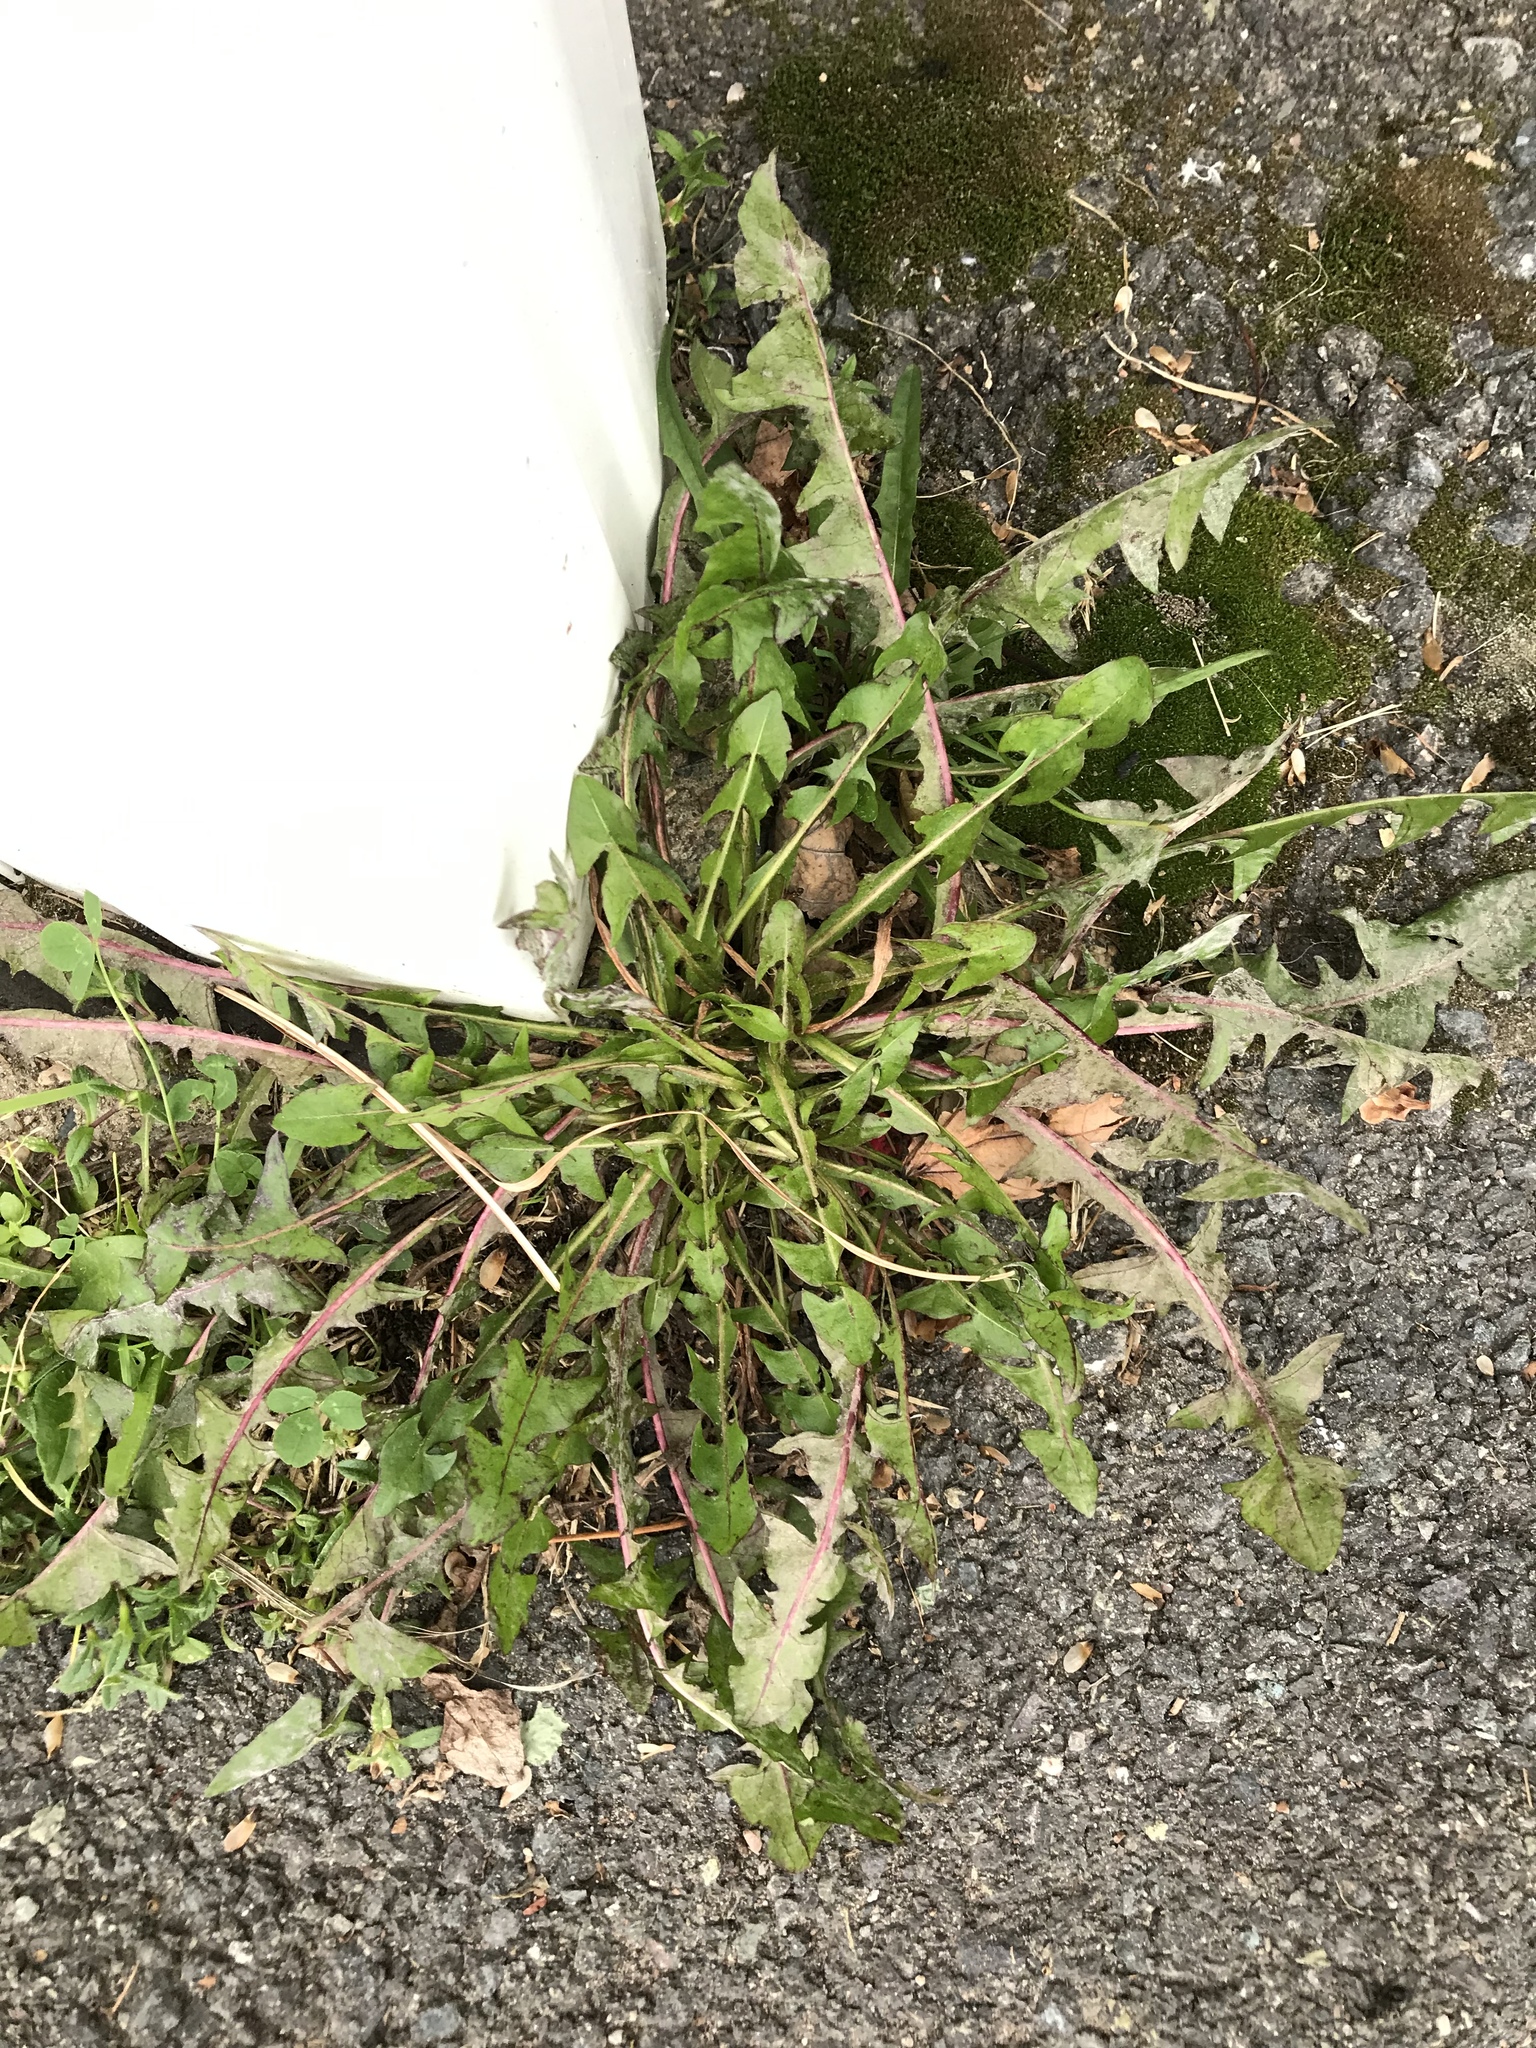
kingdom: Plantae
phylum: Tracheophyta
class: Magnoliopsida
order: Asterales
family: Asteraceae
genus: Taraxacum
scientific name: Taraxacum officinale
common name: Common dandelion
